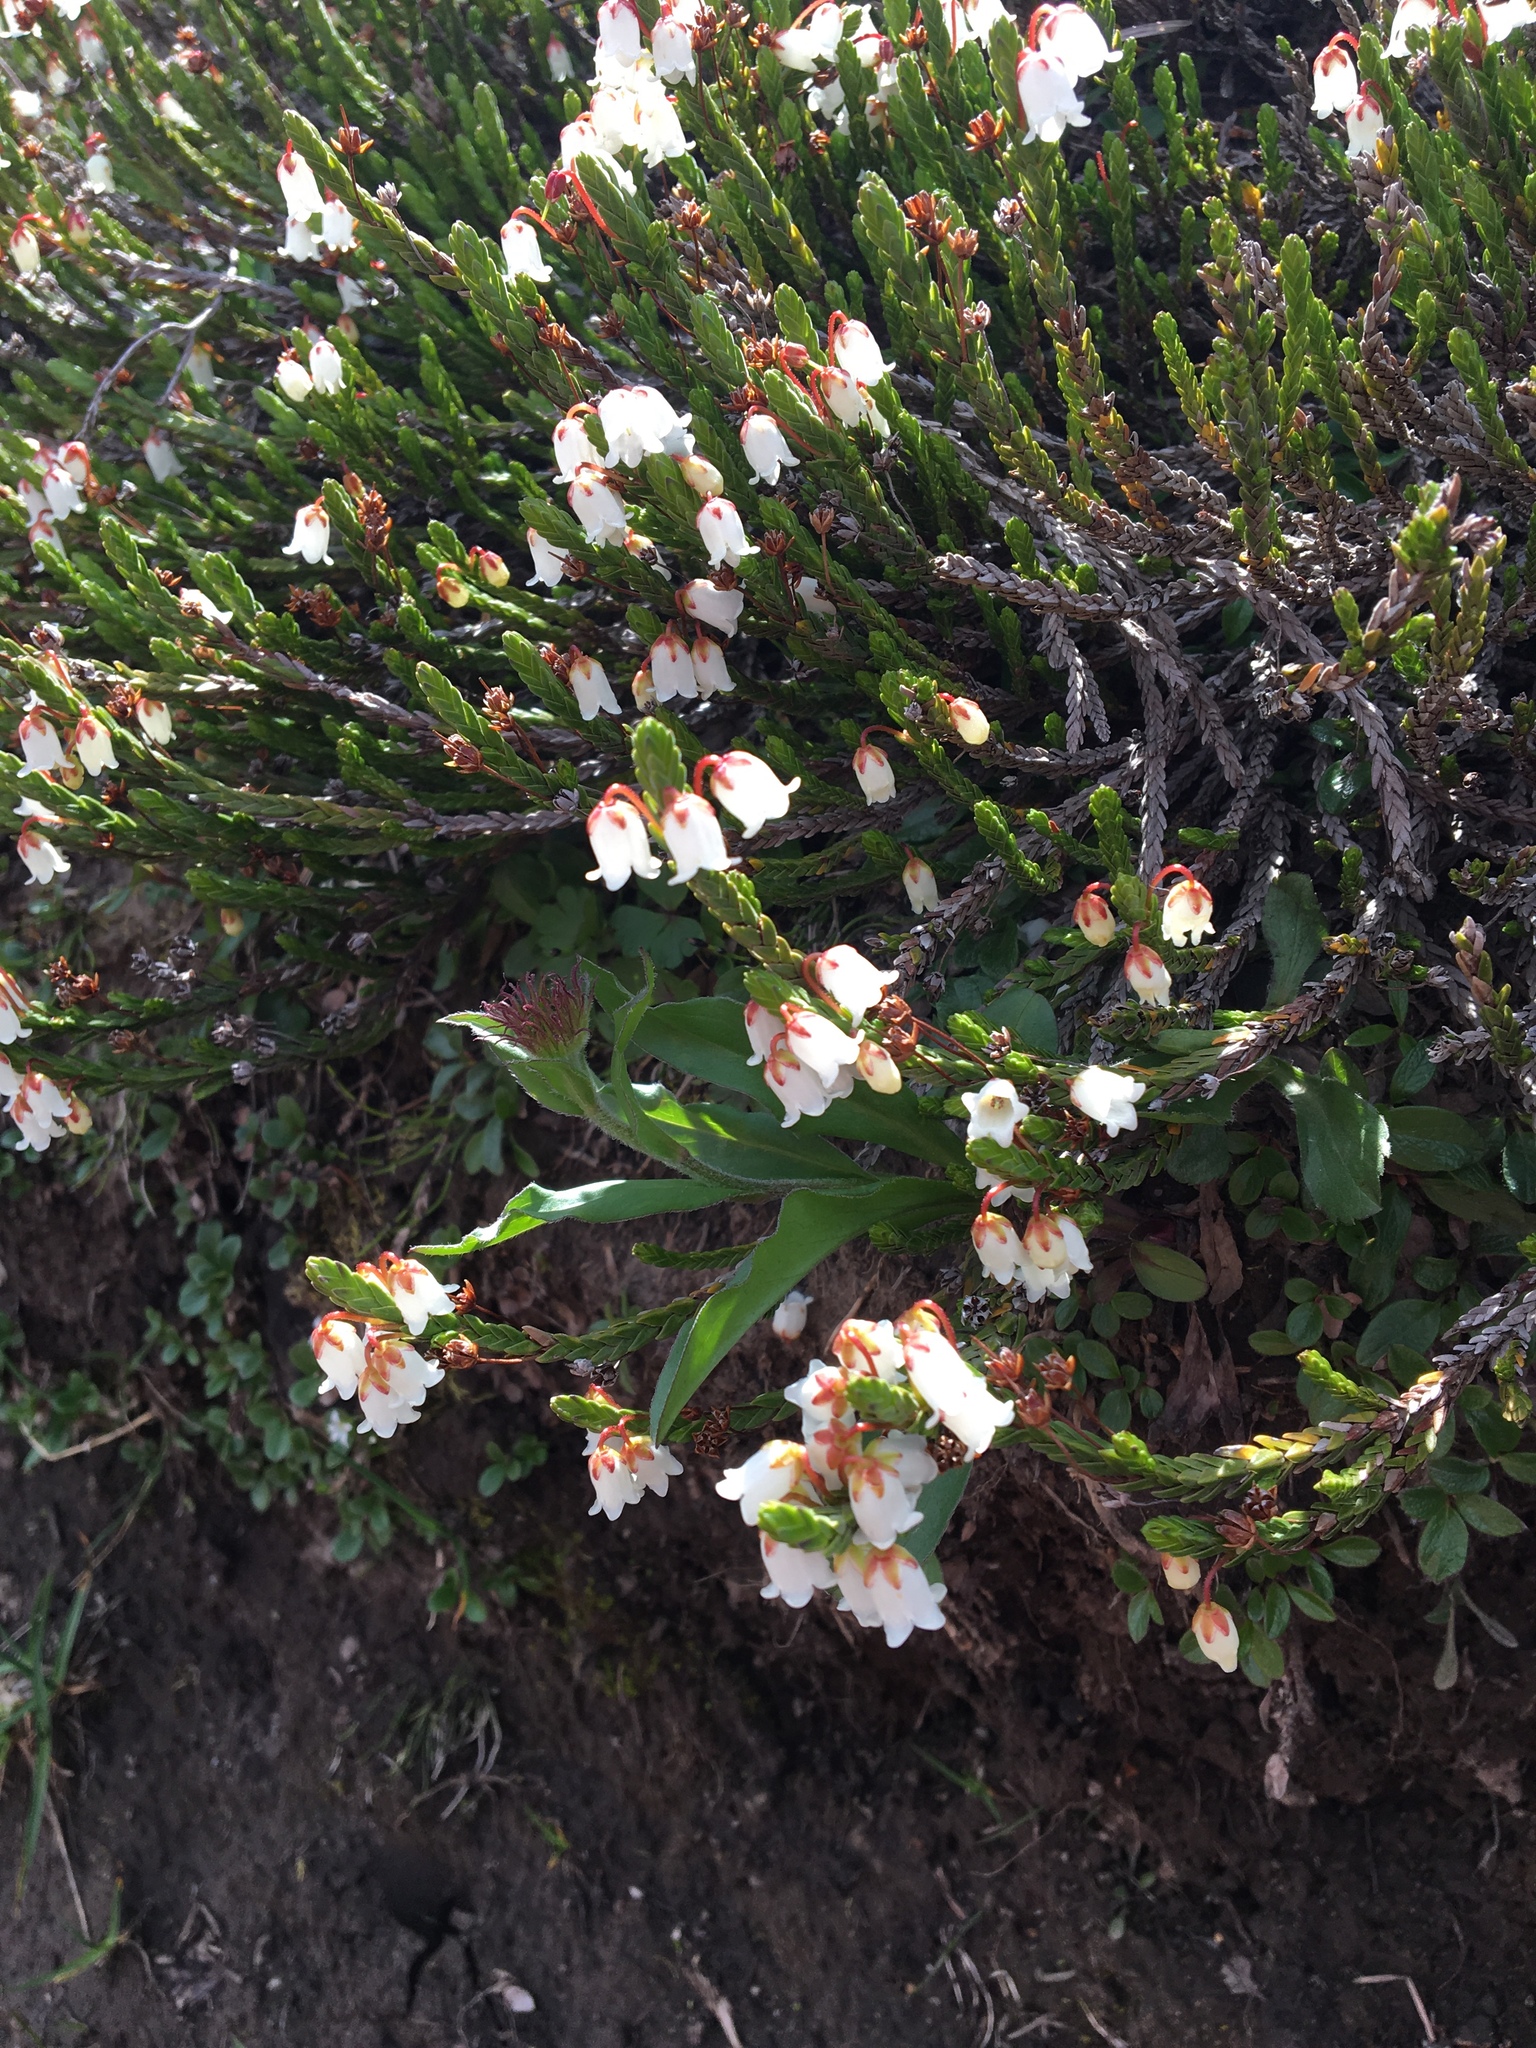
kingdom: Plantae
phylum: Tracheophyta
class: Magnoliopsida
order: Ericales
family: Ericaceae
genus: Cassiope
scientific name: Cassiope tetragona
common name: Arctic bell heather
